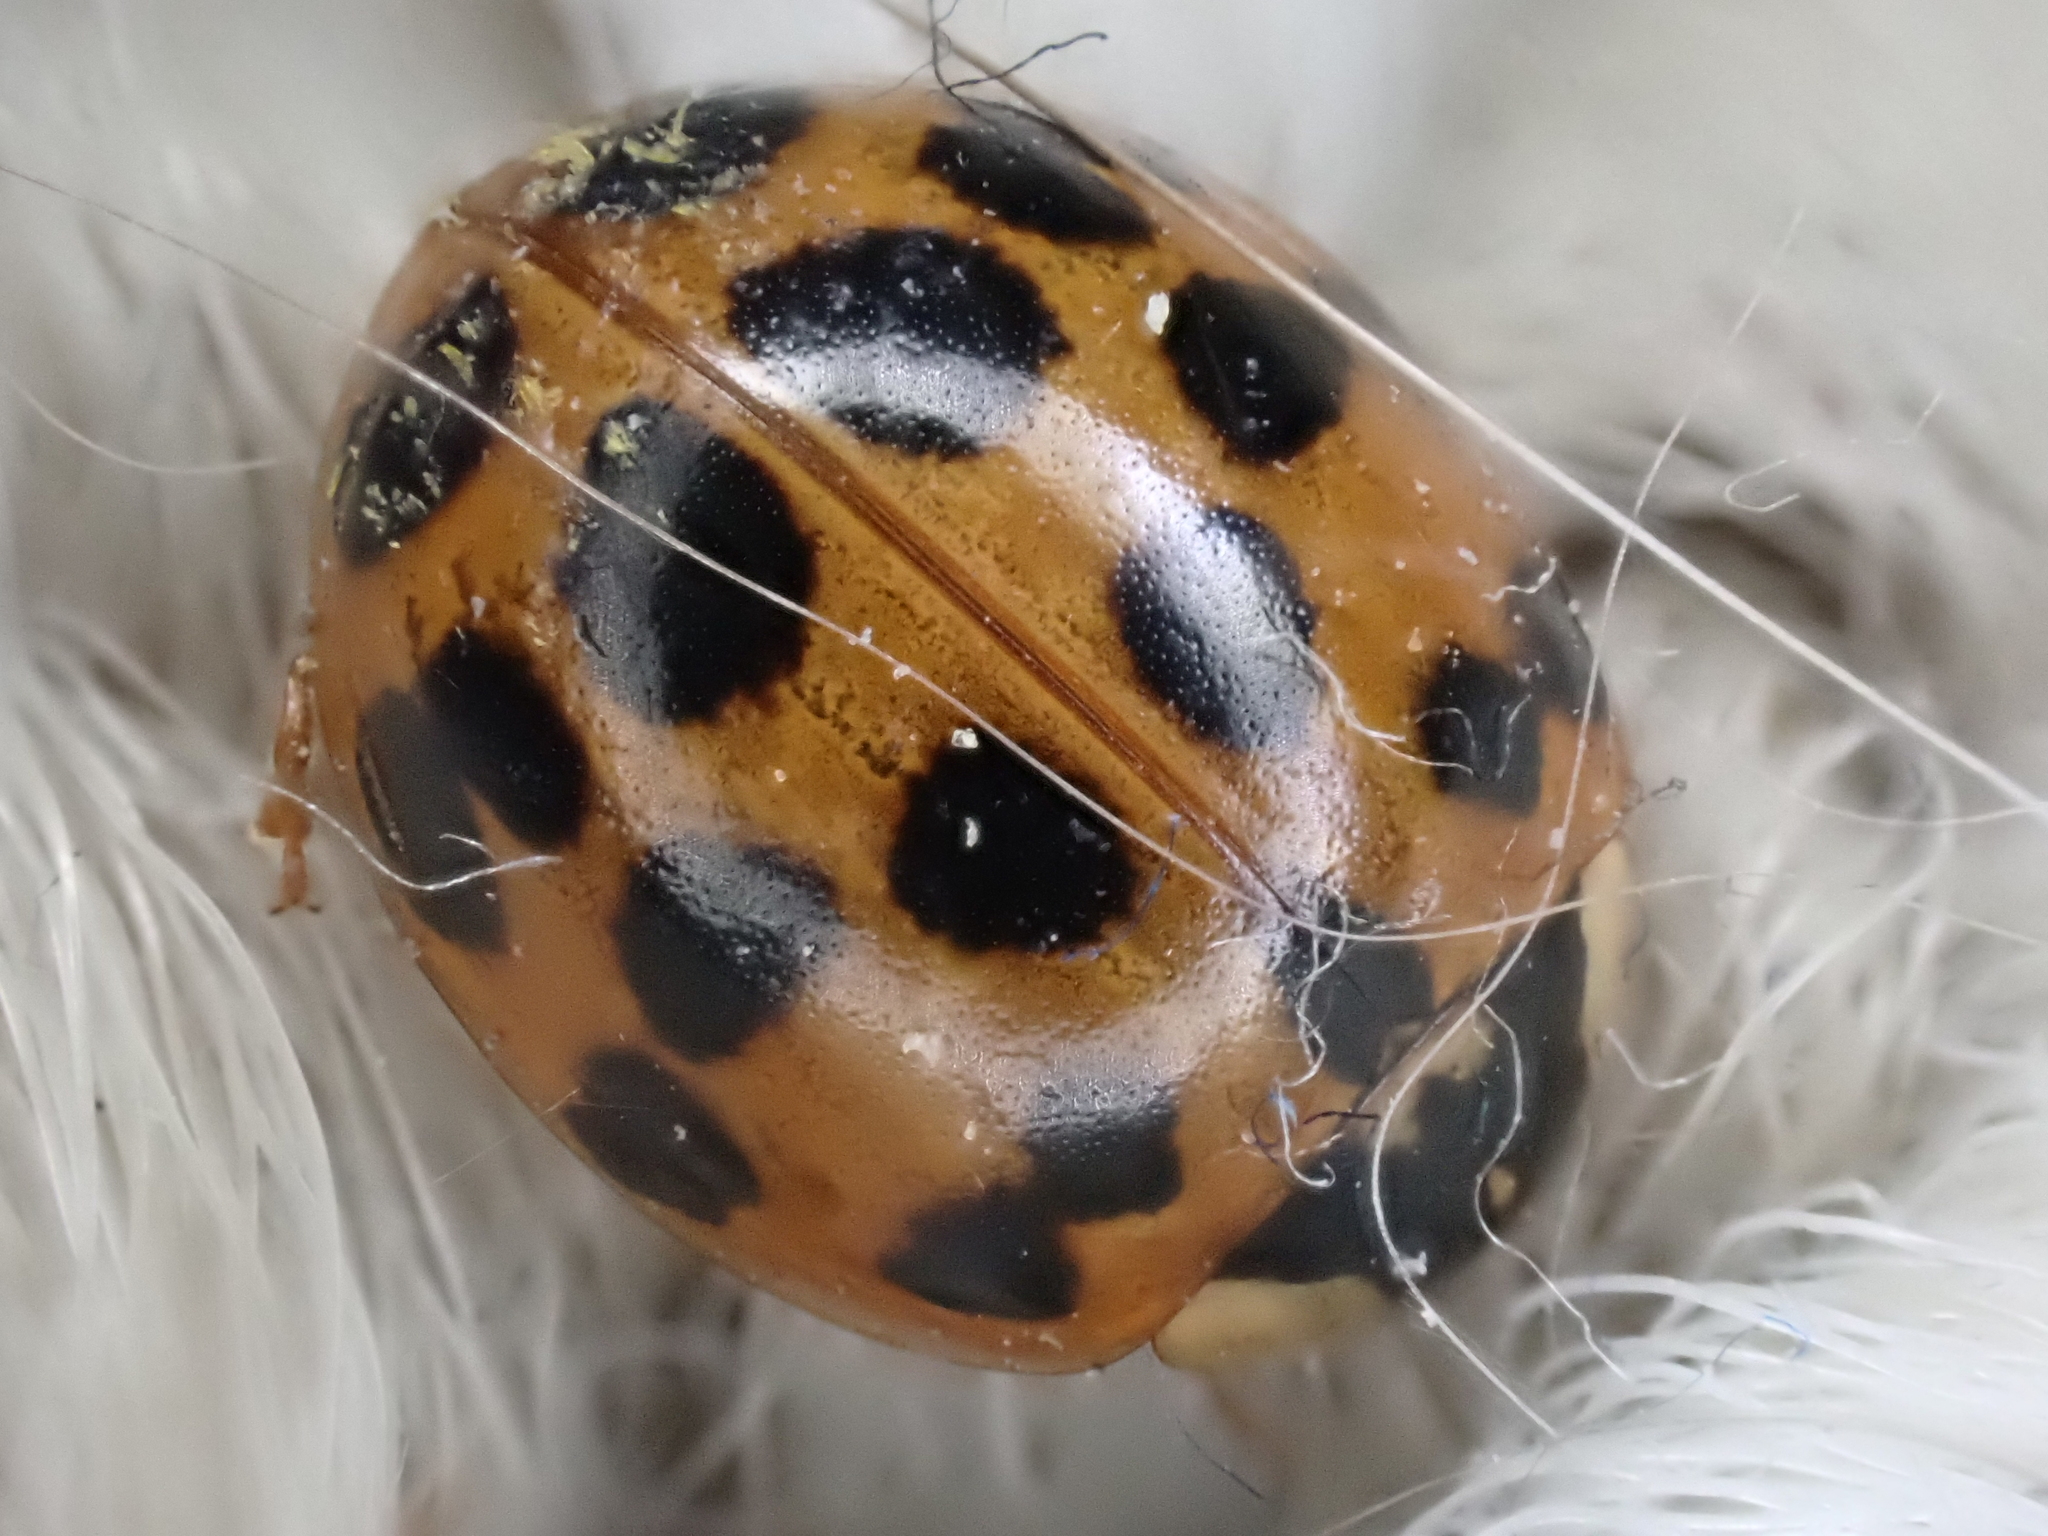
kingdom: Animalia
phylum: Arthropoda
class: Insecta
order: Coleoptera
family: Coccinellidae
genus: Harmonia
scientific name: Harmonia axyridis
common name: Harlequin ladybird
